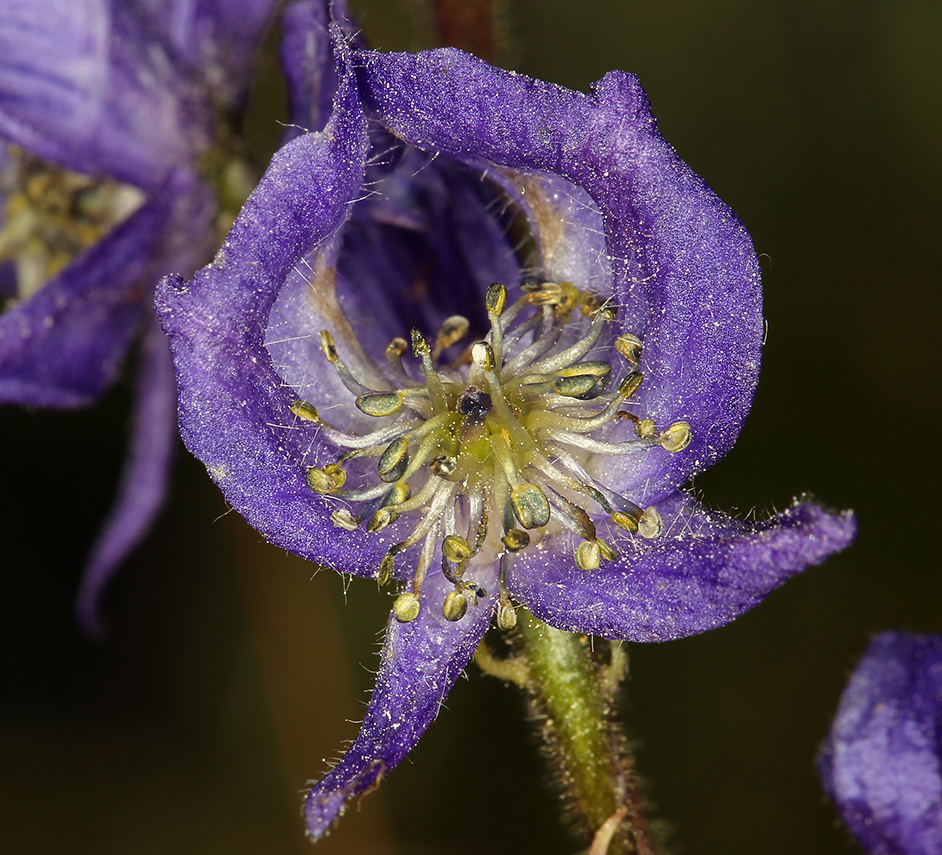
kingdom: Plantae
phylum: Tracheophyta
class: Magnoliopsida
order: Ranunculales
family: Ranunculaceae
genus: Aconitum
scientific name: Aconitum columbianum
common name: Columbia aconite
